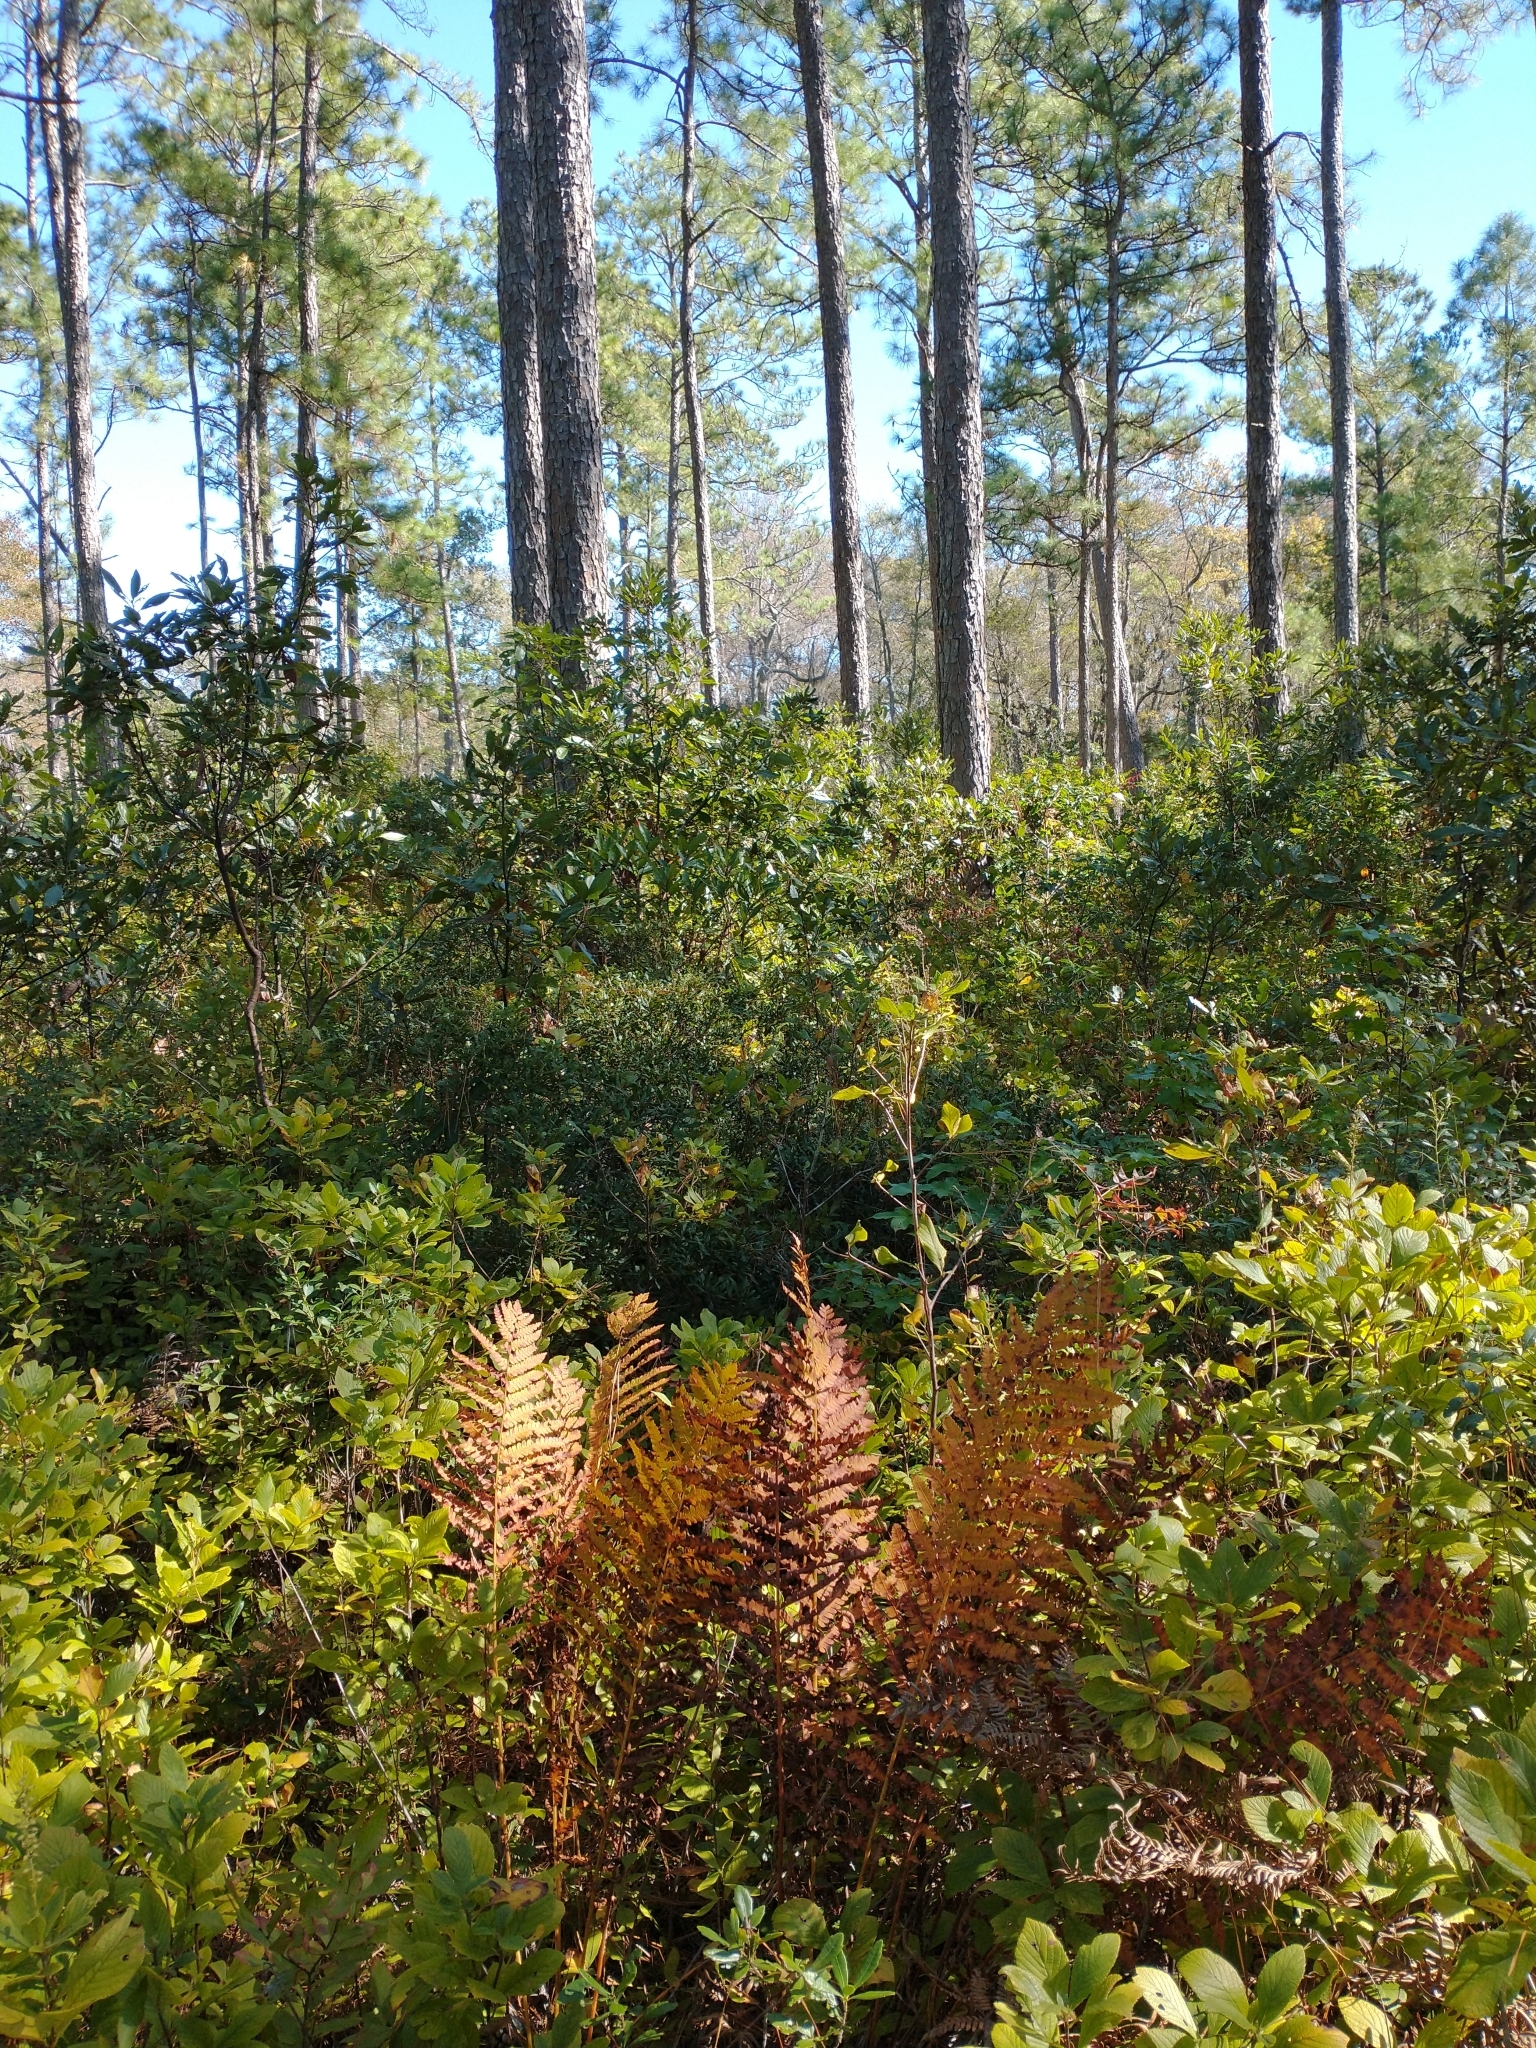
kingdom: Plantae
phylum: Tracheophyta
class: Polypodiopsida
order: Osmundales
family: Osmundaceae
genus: Osmundastrum
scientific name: Osmundastrum cinnamomeum
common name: Cinnamon fern
